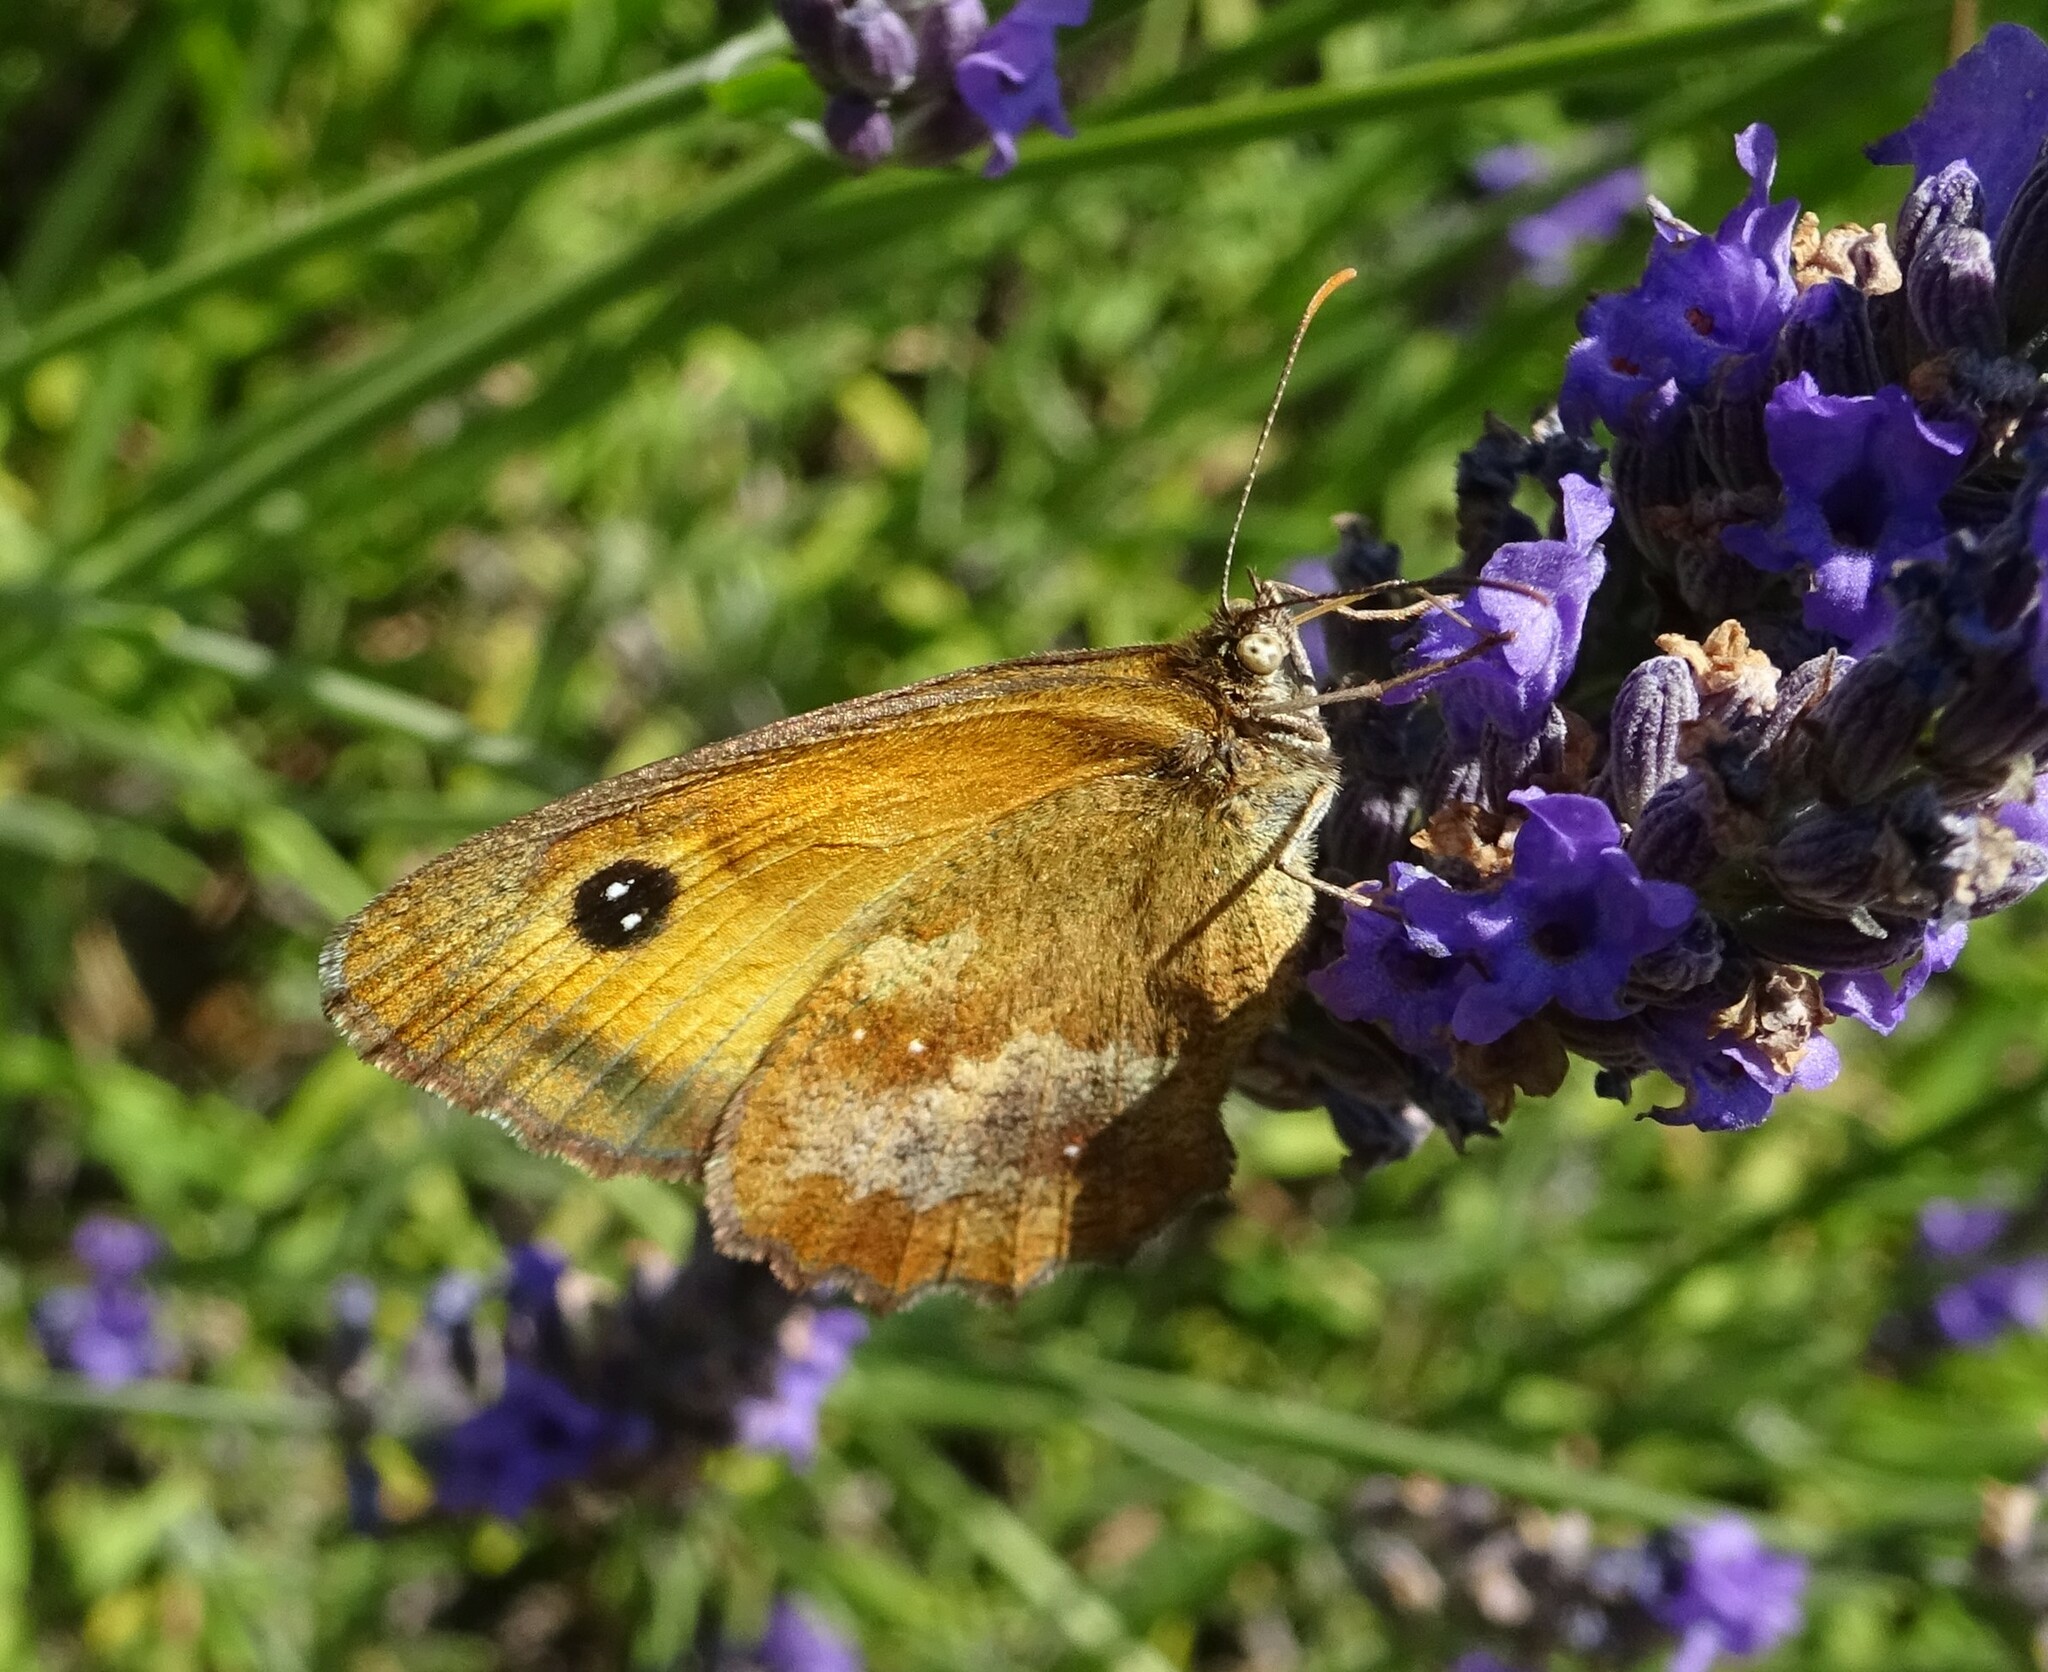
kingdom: Animalia
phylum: Arthropoda
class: Insecta
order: Lepidoptera
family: Nymphalidae
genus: Pyronia
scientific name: Pyronia tithonus
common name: Gatekeeper
